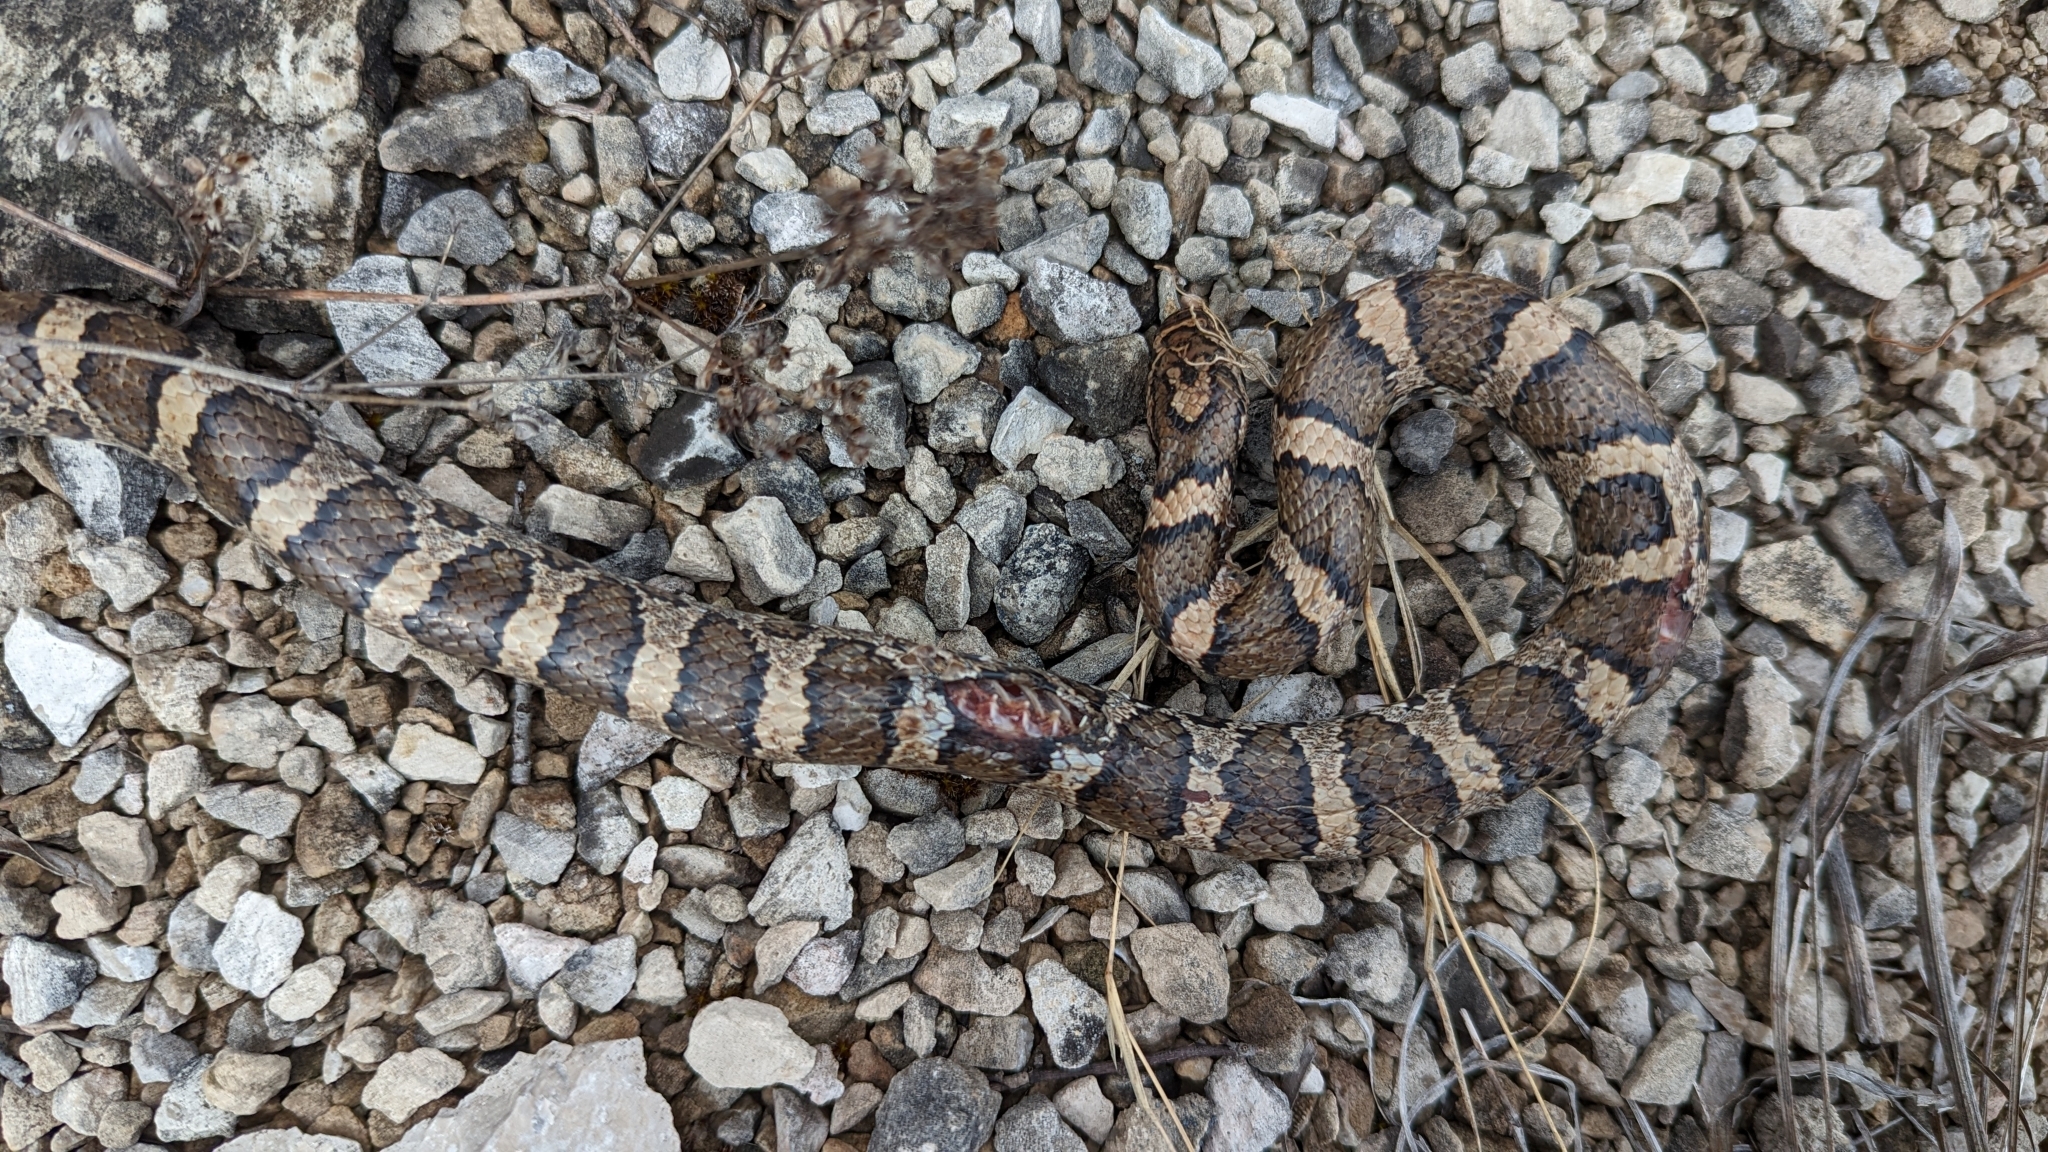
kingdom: Animalia
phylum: Chordata
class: Squamata
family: Colubridae
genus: Lampropeltis
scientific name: Lampropeltis triangulum
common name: Eastern milksnake
